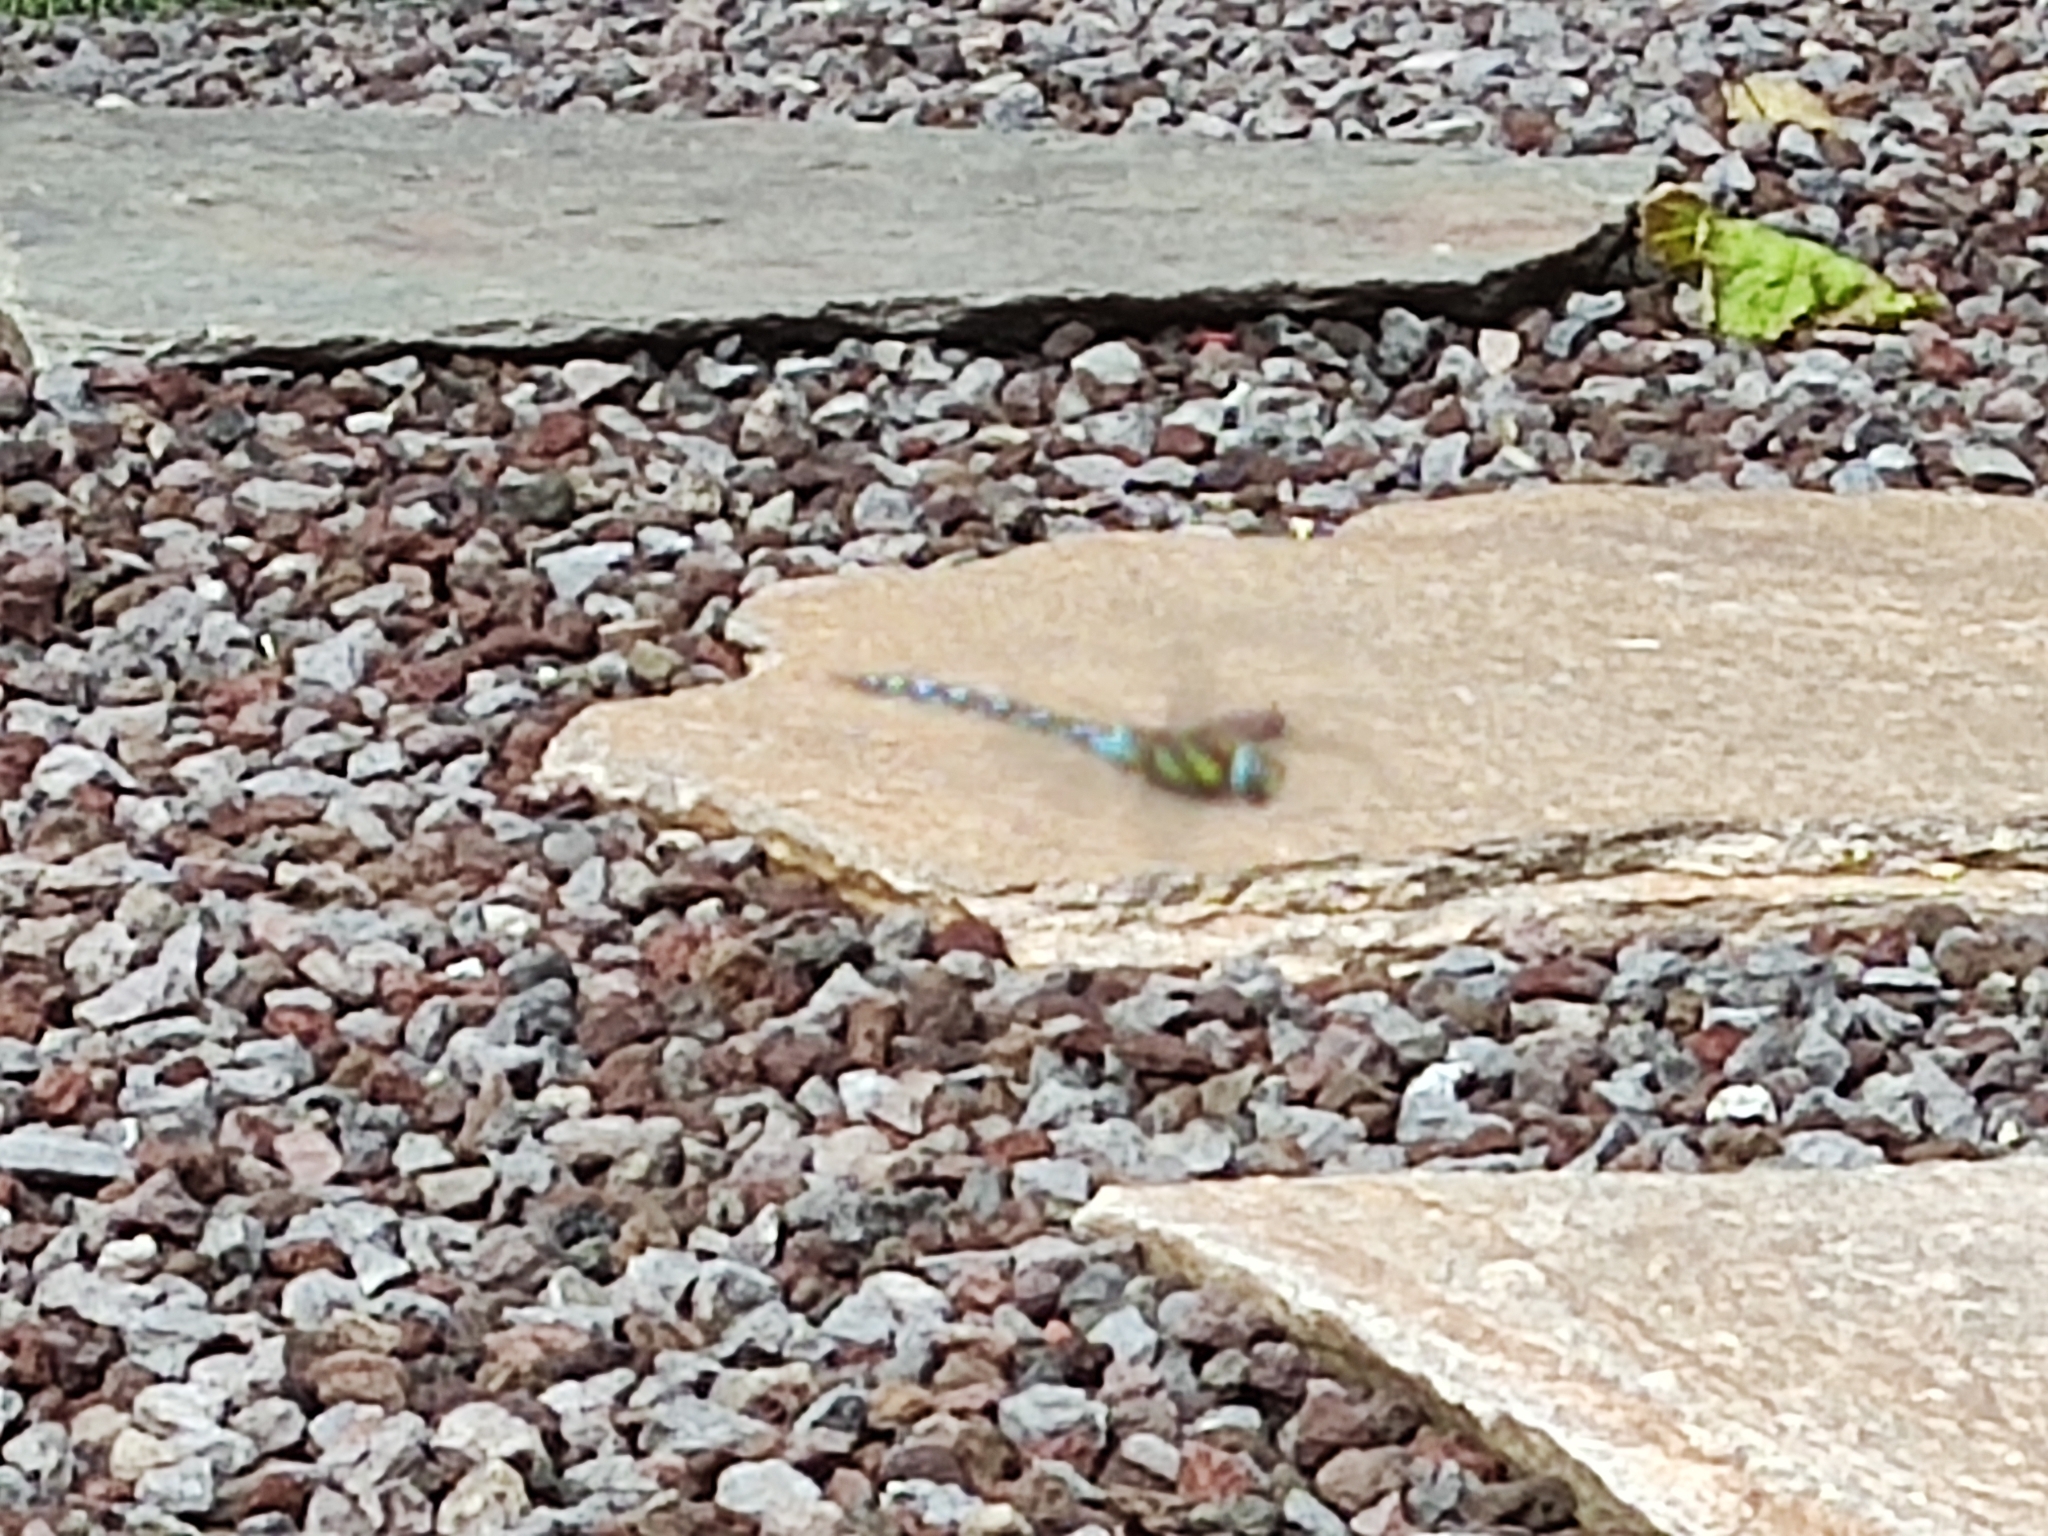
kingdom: Animalia
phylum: Arthropoda
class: Insecta
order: Odonata
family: Aeshnidae
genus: Aeshna
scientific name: Aeshna mixta
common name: Migrant hawker
